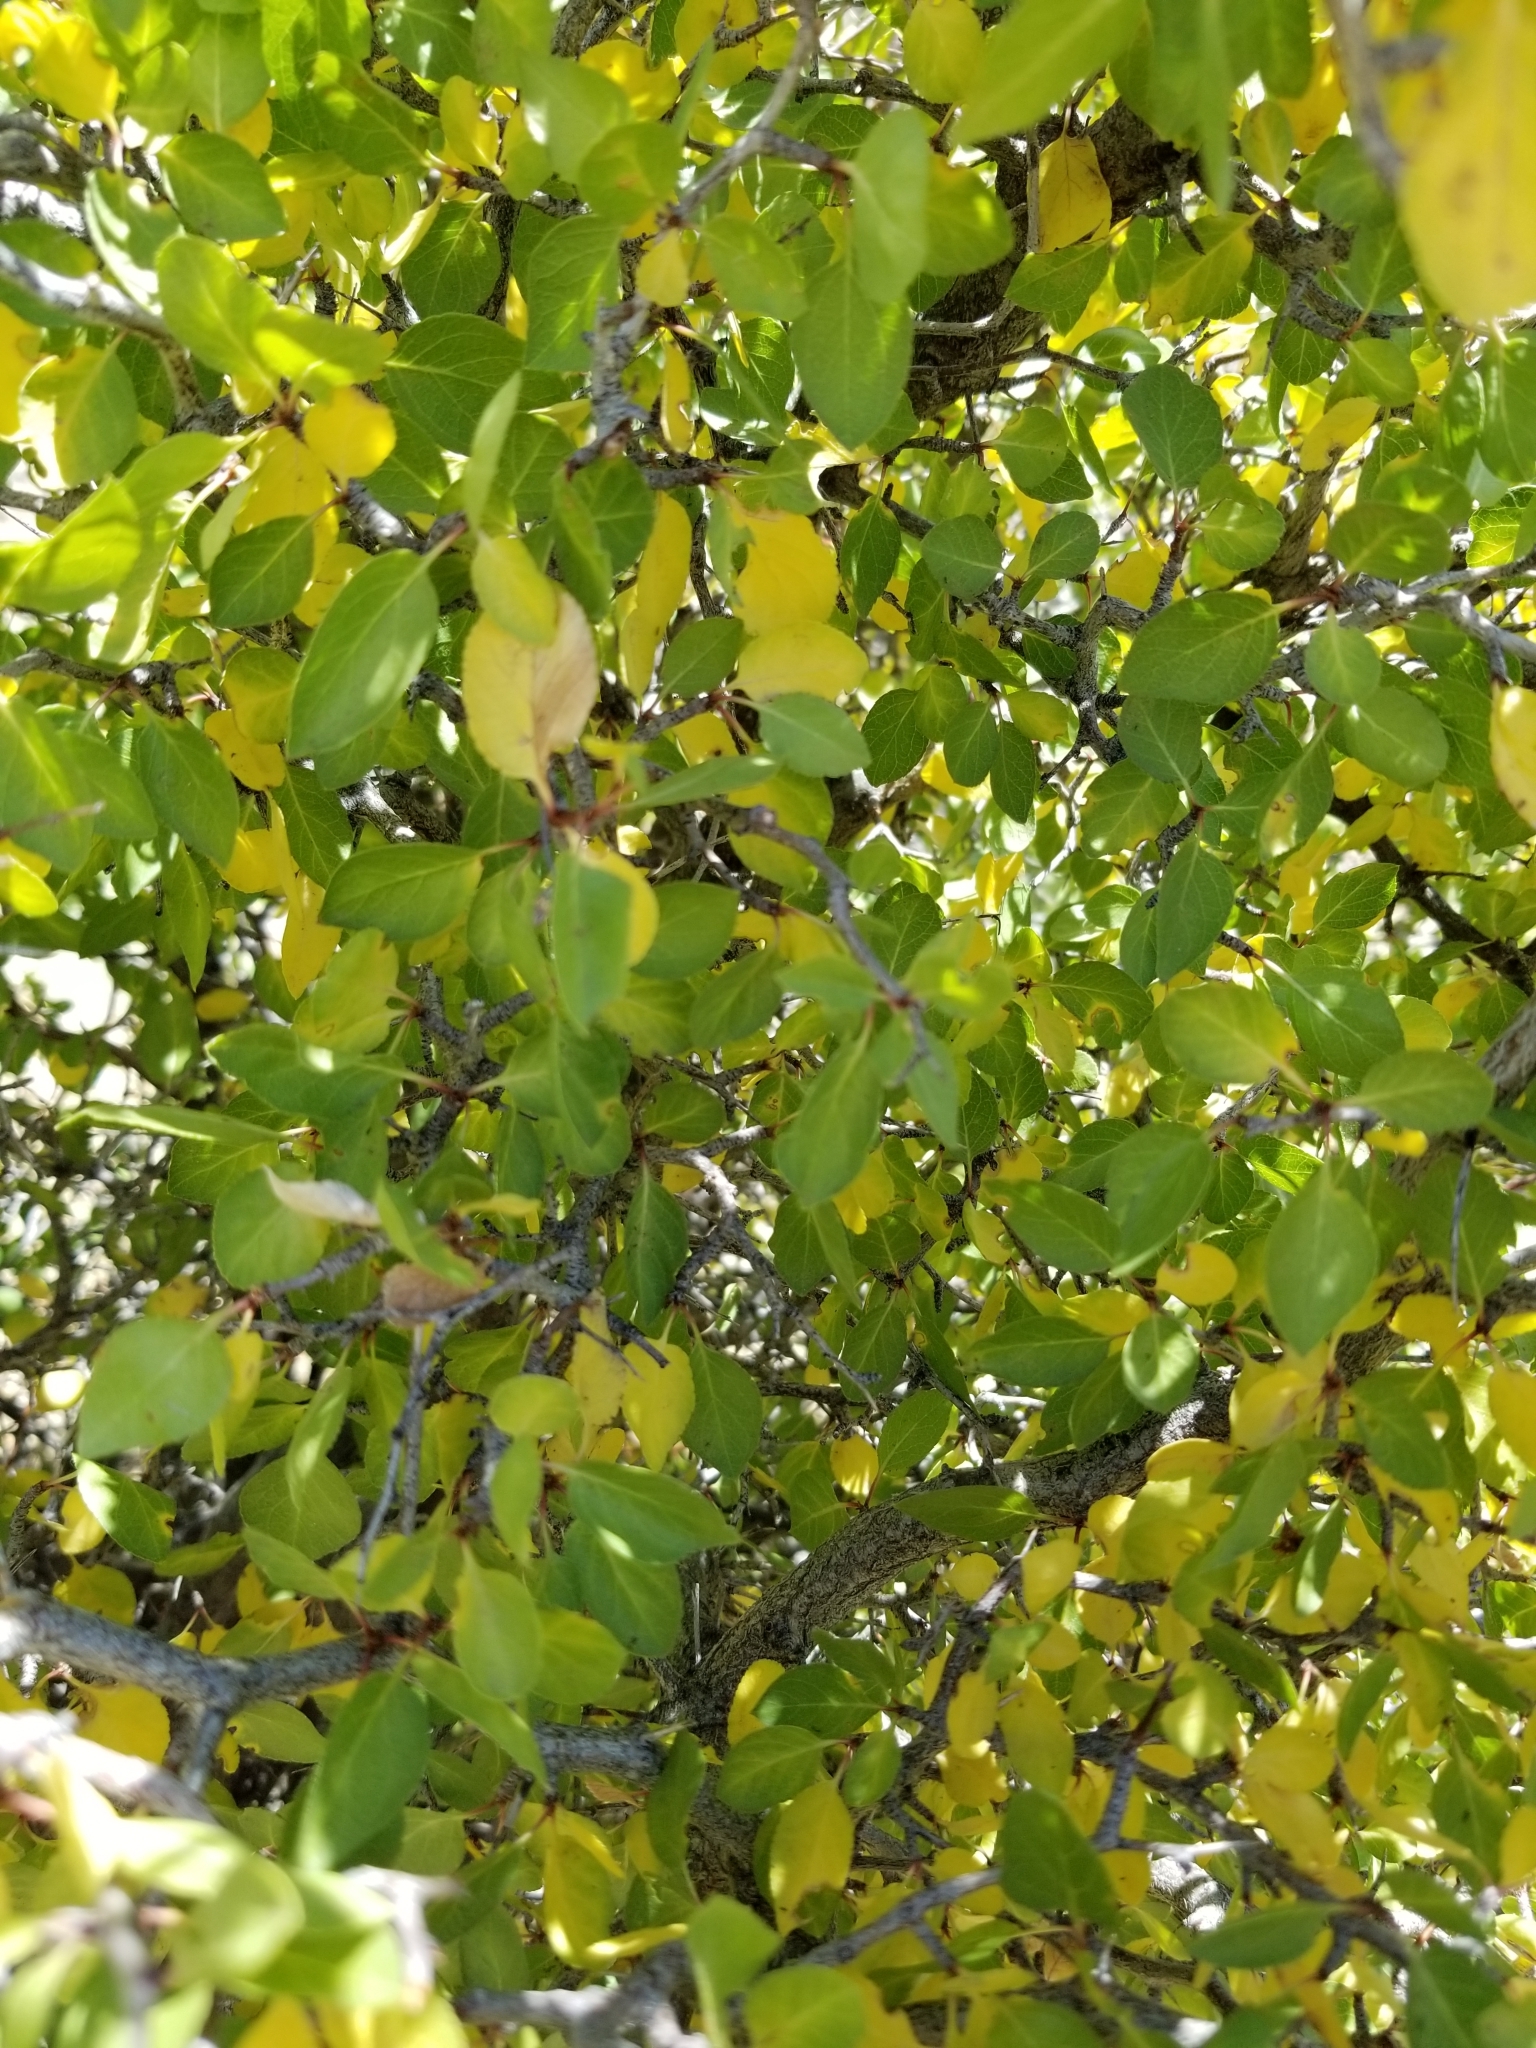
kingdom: Plantae
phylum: Tracheophyta
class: Magnoliopsida
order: Rosales
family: Rhamnaceae
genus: Pseudoziziphus
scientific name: Pseudoziziphus parryi
